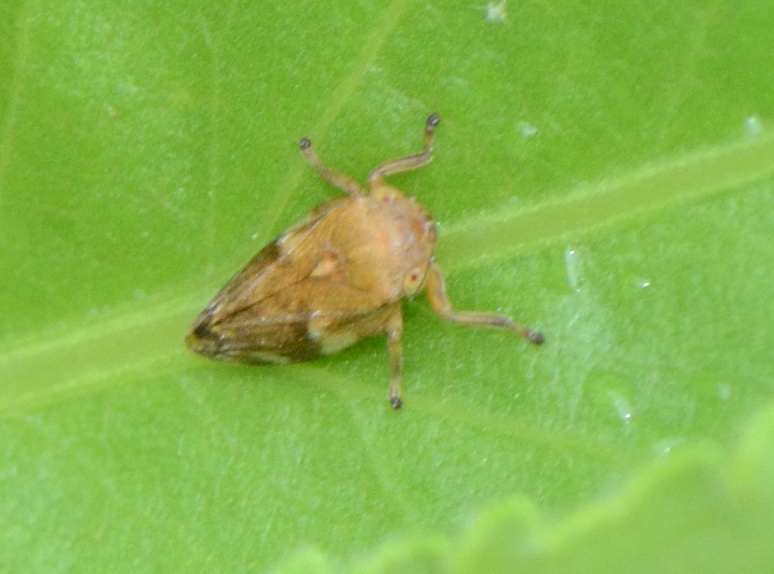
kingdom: Animalia
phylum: Arthropoda
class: Insecta
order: Hemiptera
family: Aphrophoridae
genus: Philaenus
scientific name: Philaenus spumarius
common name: Meadow spittlebug
